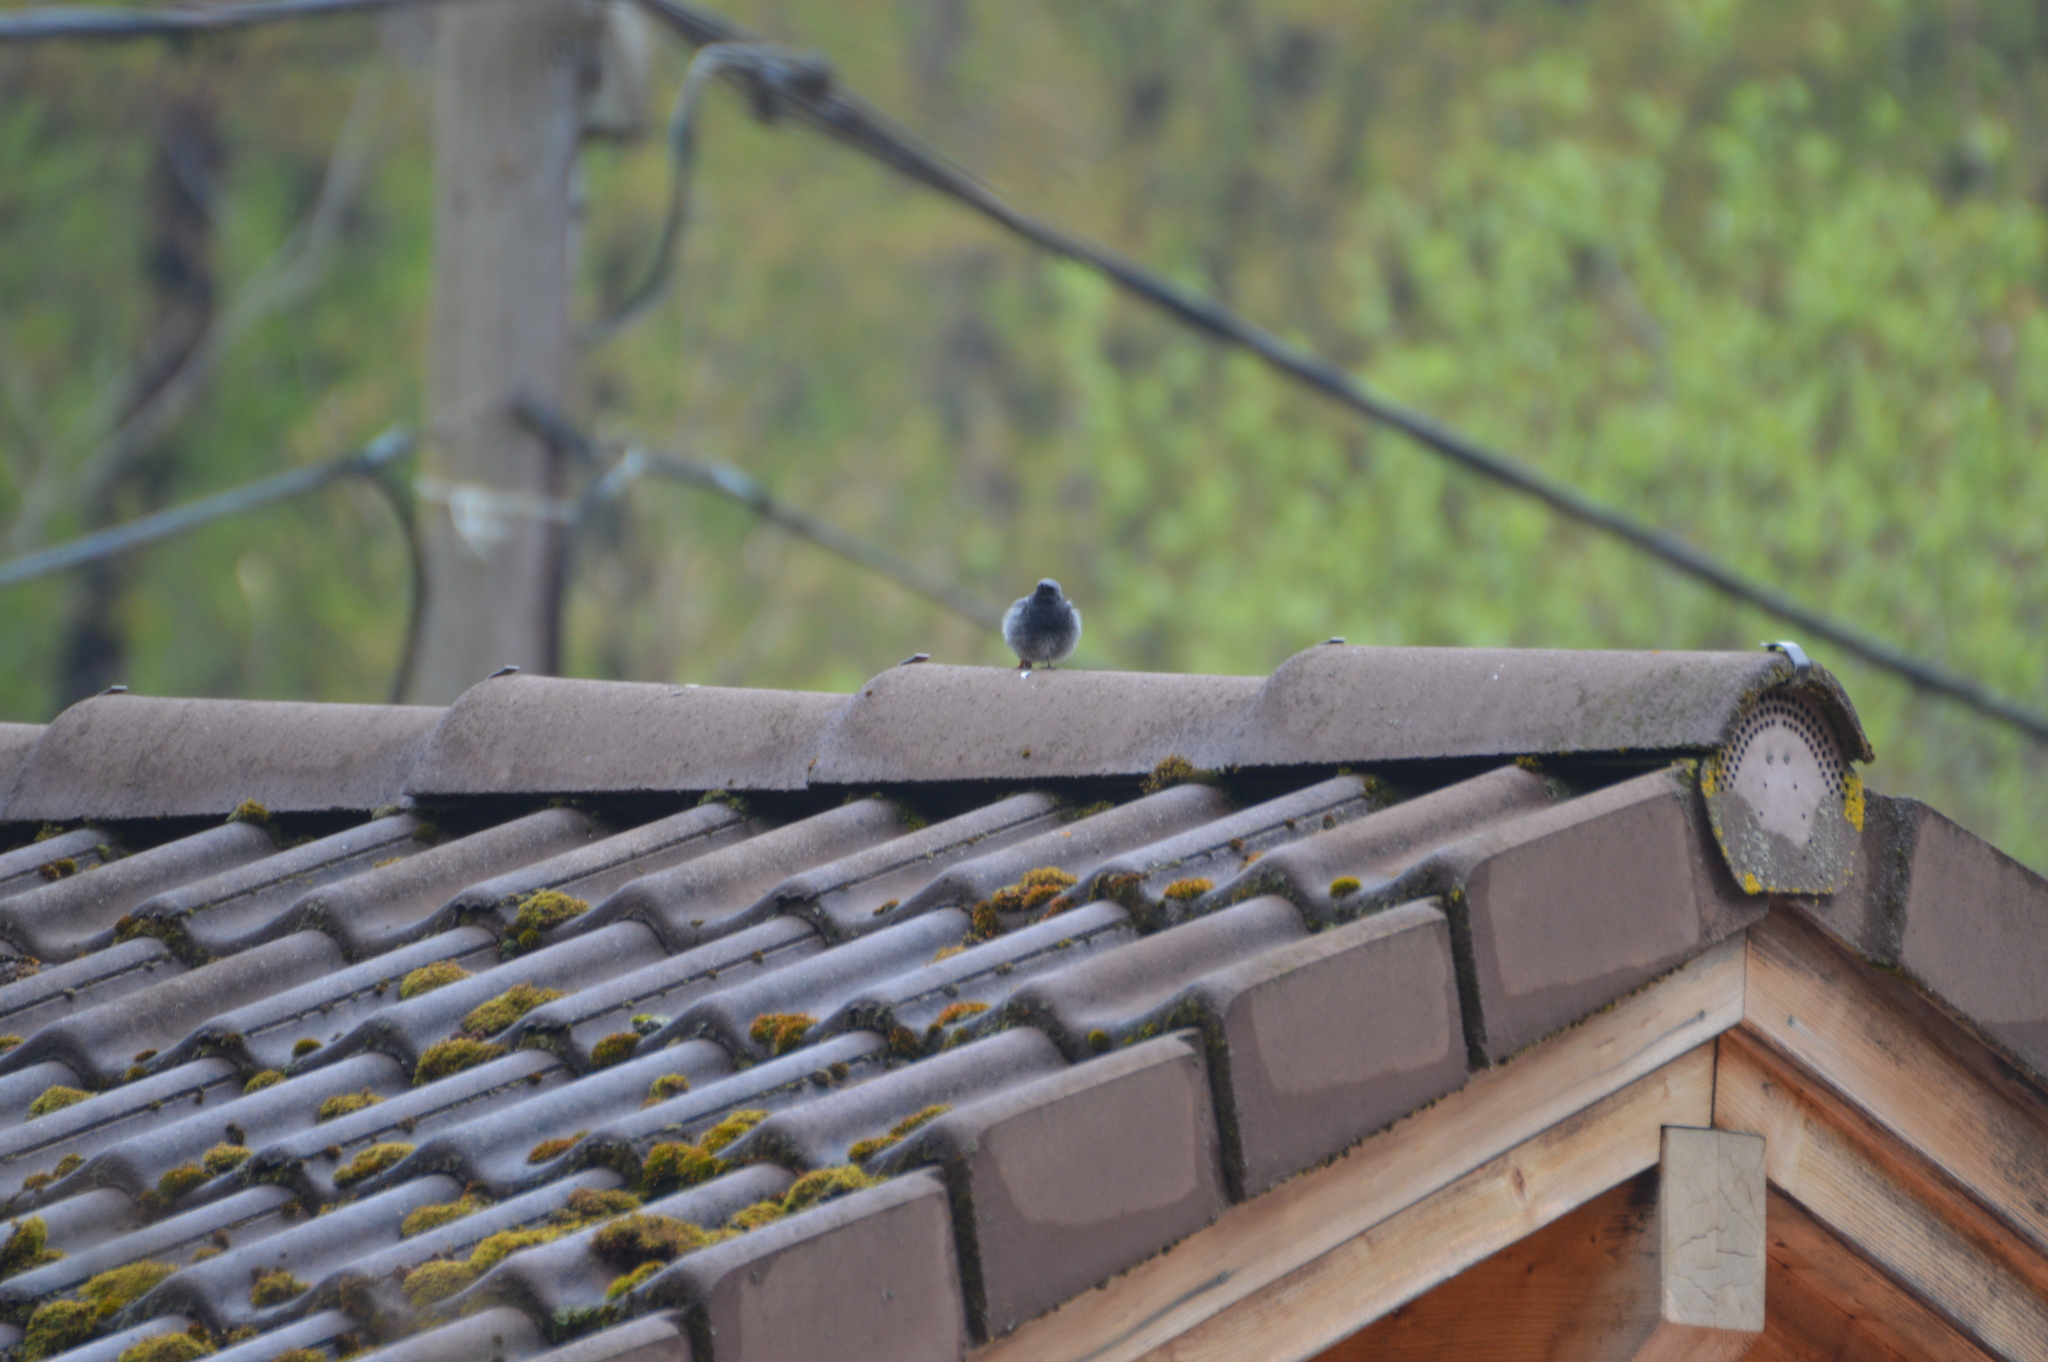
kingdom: Animalia
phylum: Chordata
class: Aves
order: Passeriformes
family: Muscicapidae
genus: Phoenicurus
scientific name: Phoenicurus ochruros
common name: Black redstart
